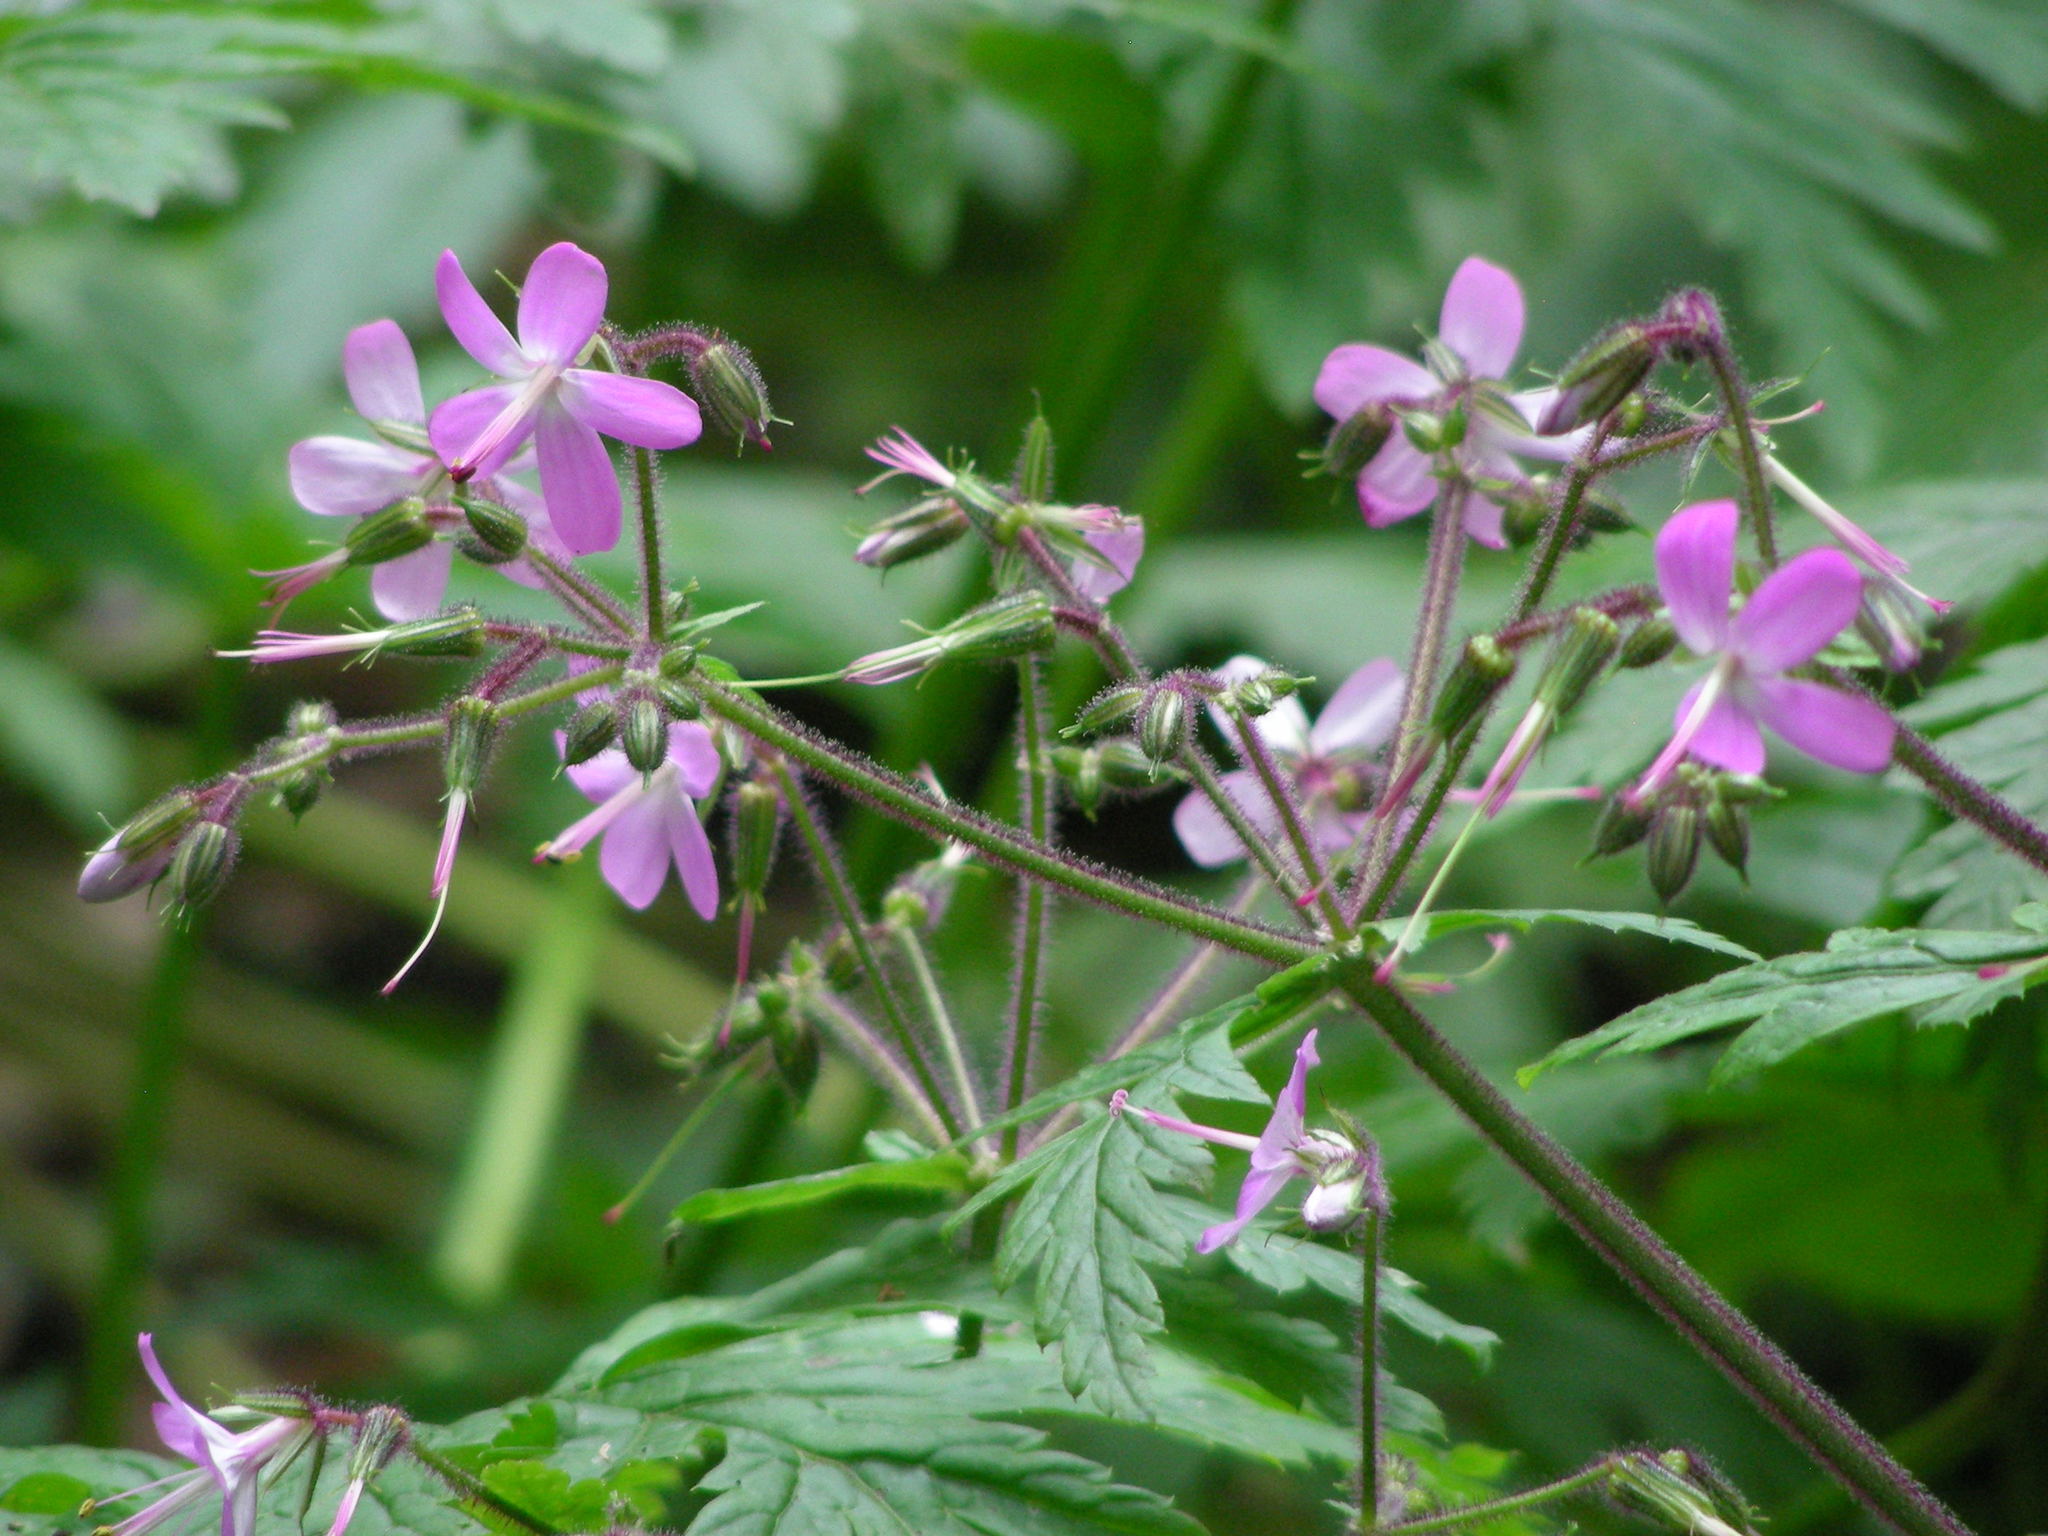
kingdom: Plantae
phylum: Tracheophyta
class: Magnoliopsida
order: Geraniales
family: Geraniaceae
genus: Geranium
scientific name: Geranium reuteri
